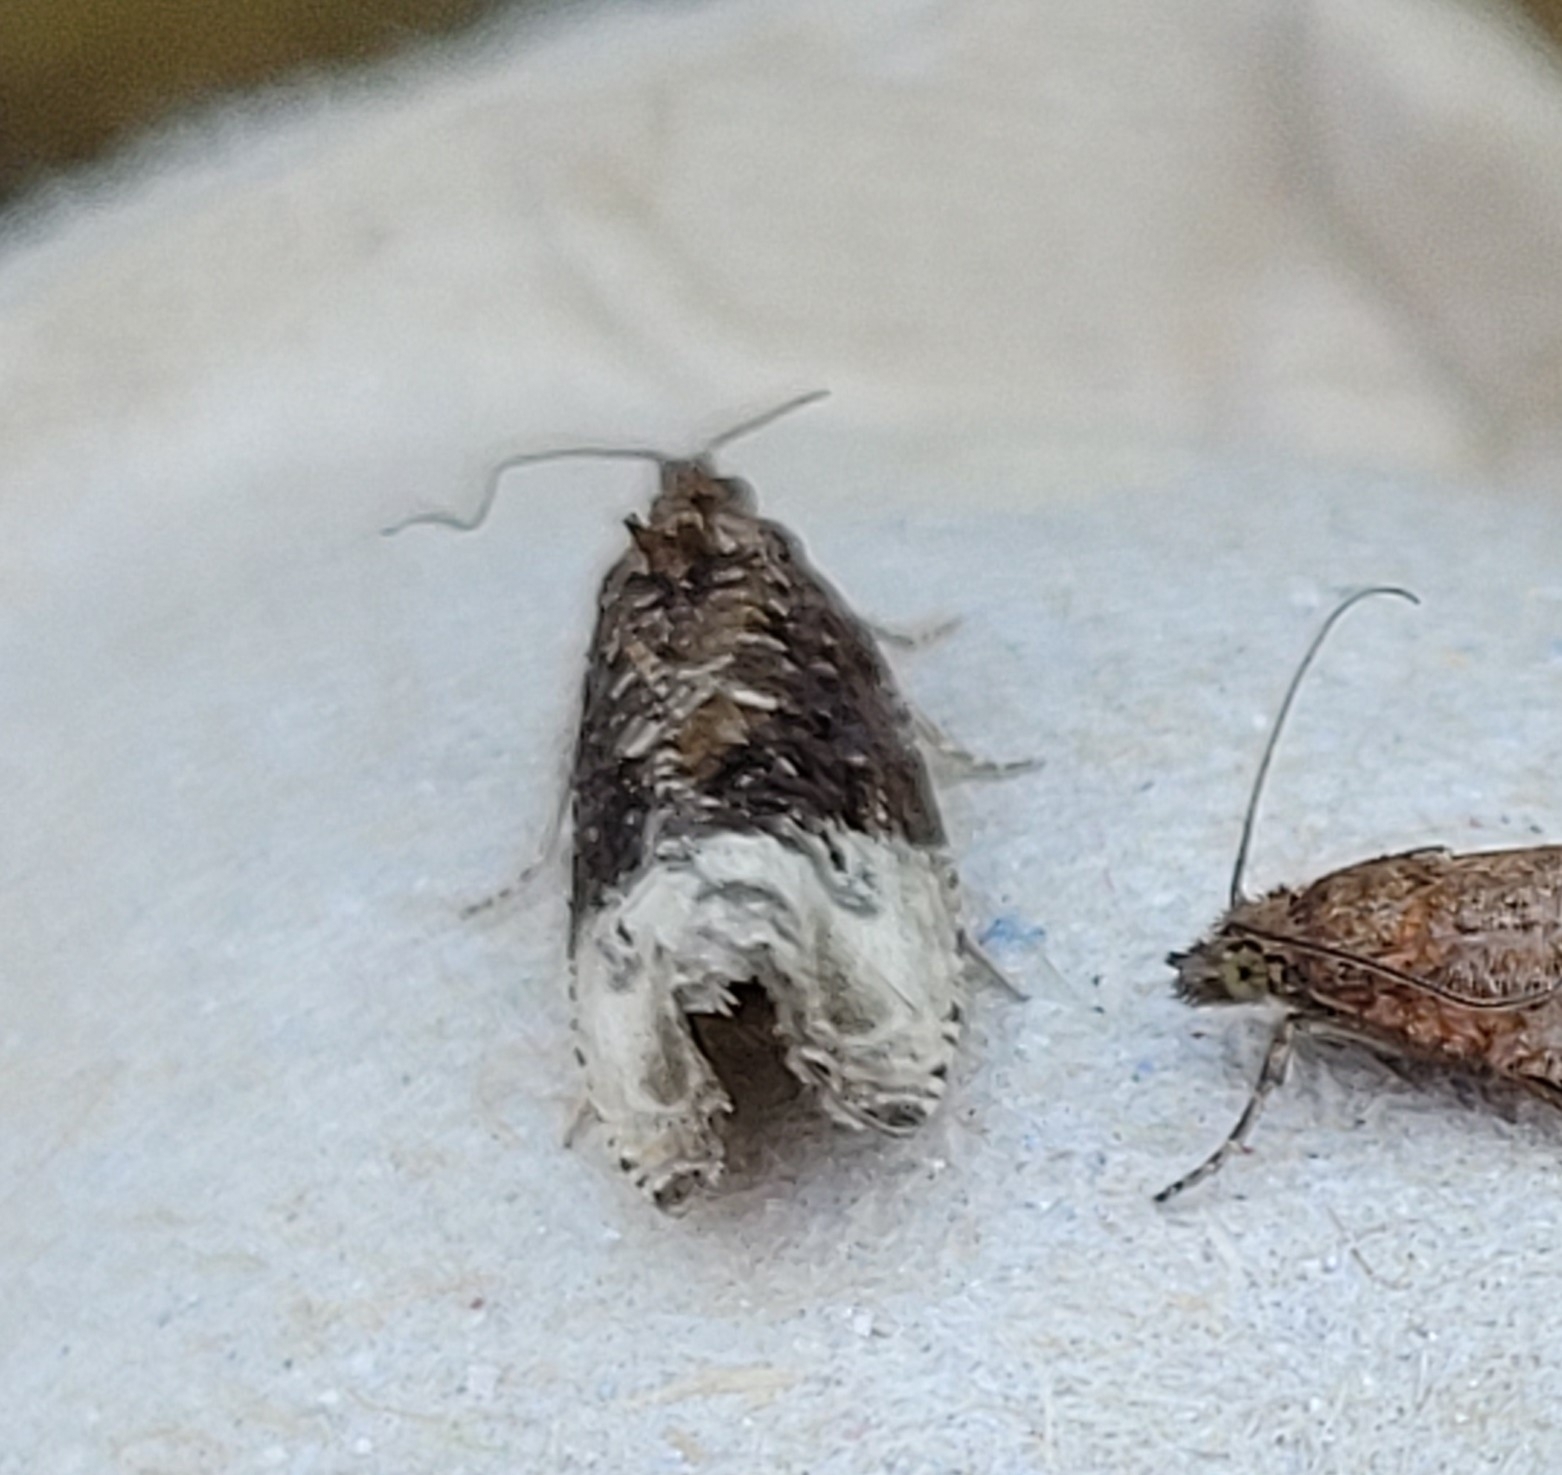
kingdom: Animalia
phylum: Arthropoda
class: Insecta
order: Lepidoptera
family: Tortricidae
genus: Hedya
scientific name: Hedya pruniana
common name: Plum tortrix
